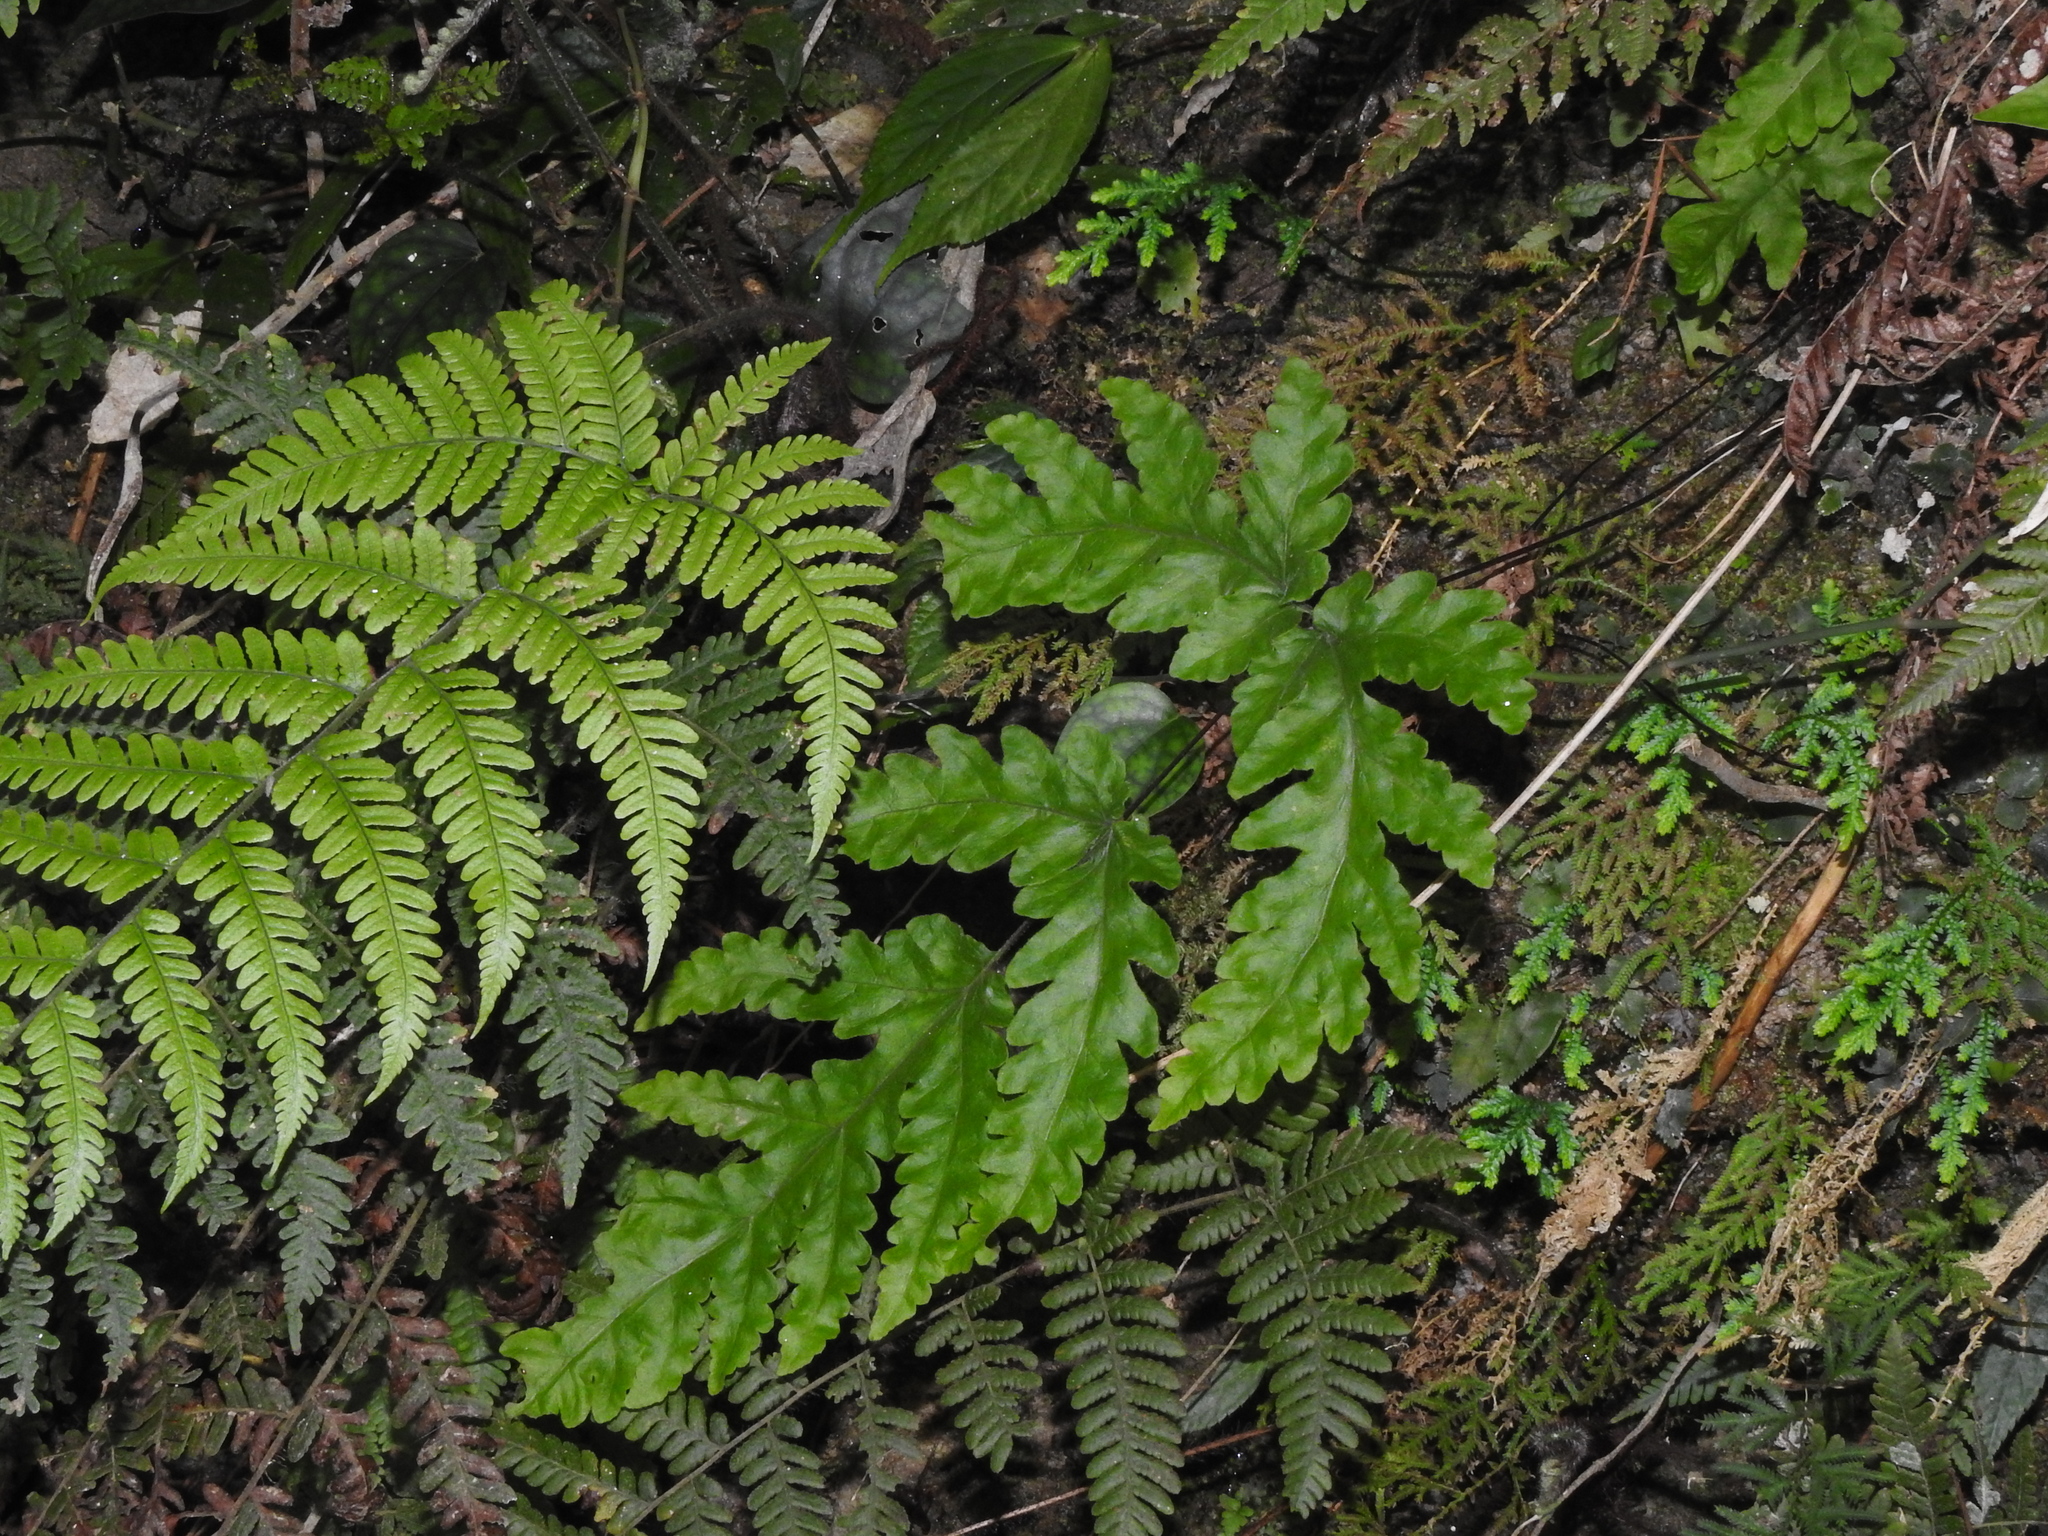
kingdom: Plantae
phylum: Tracheophyta
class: Polypodiopsida
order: Polypodiales
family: Tectariaceae
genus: Tectaria
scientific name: Tectaria coadunata
